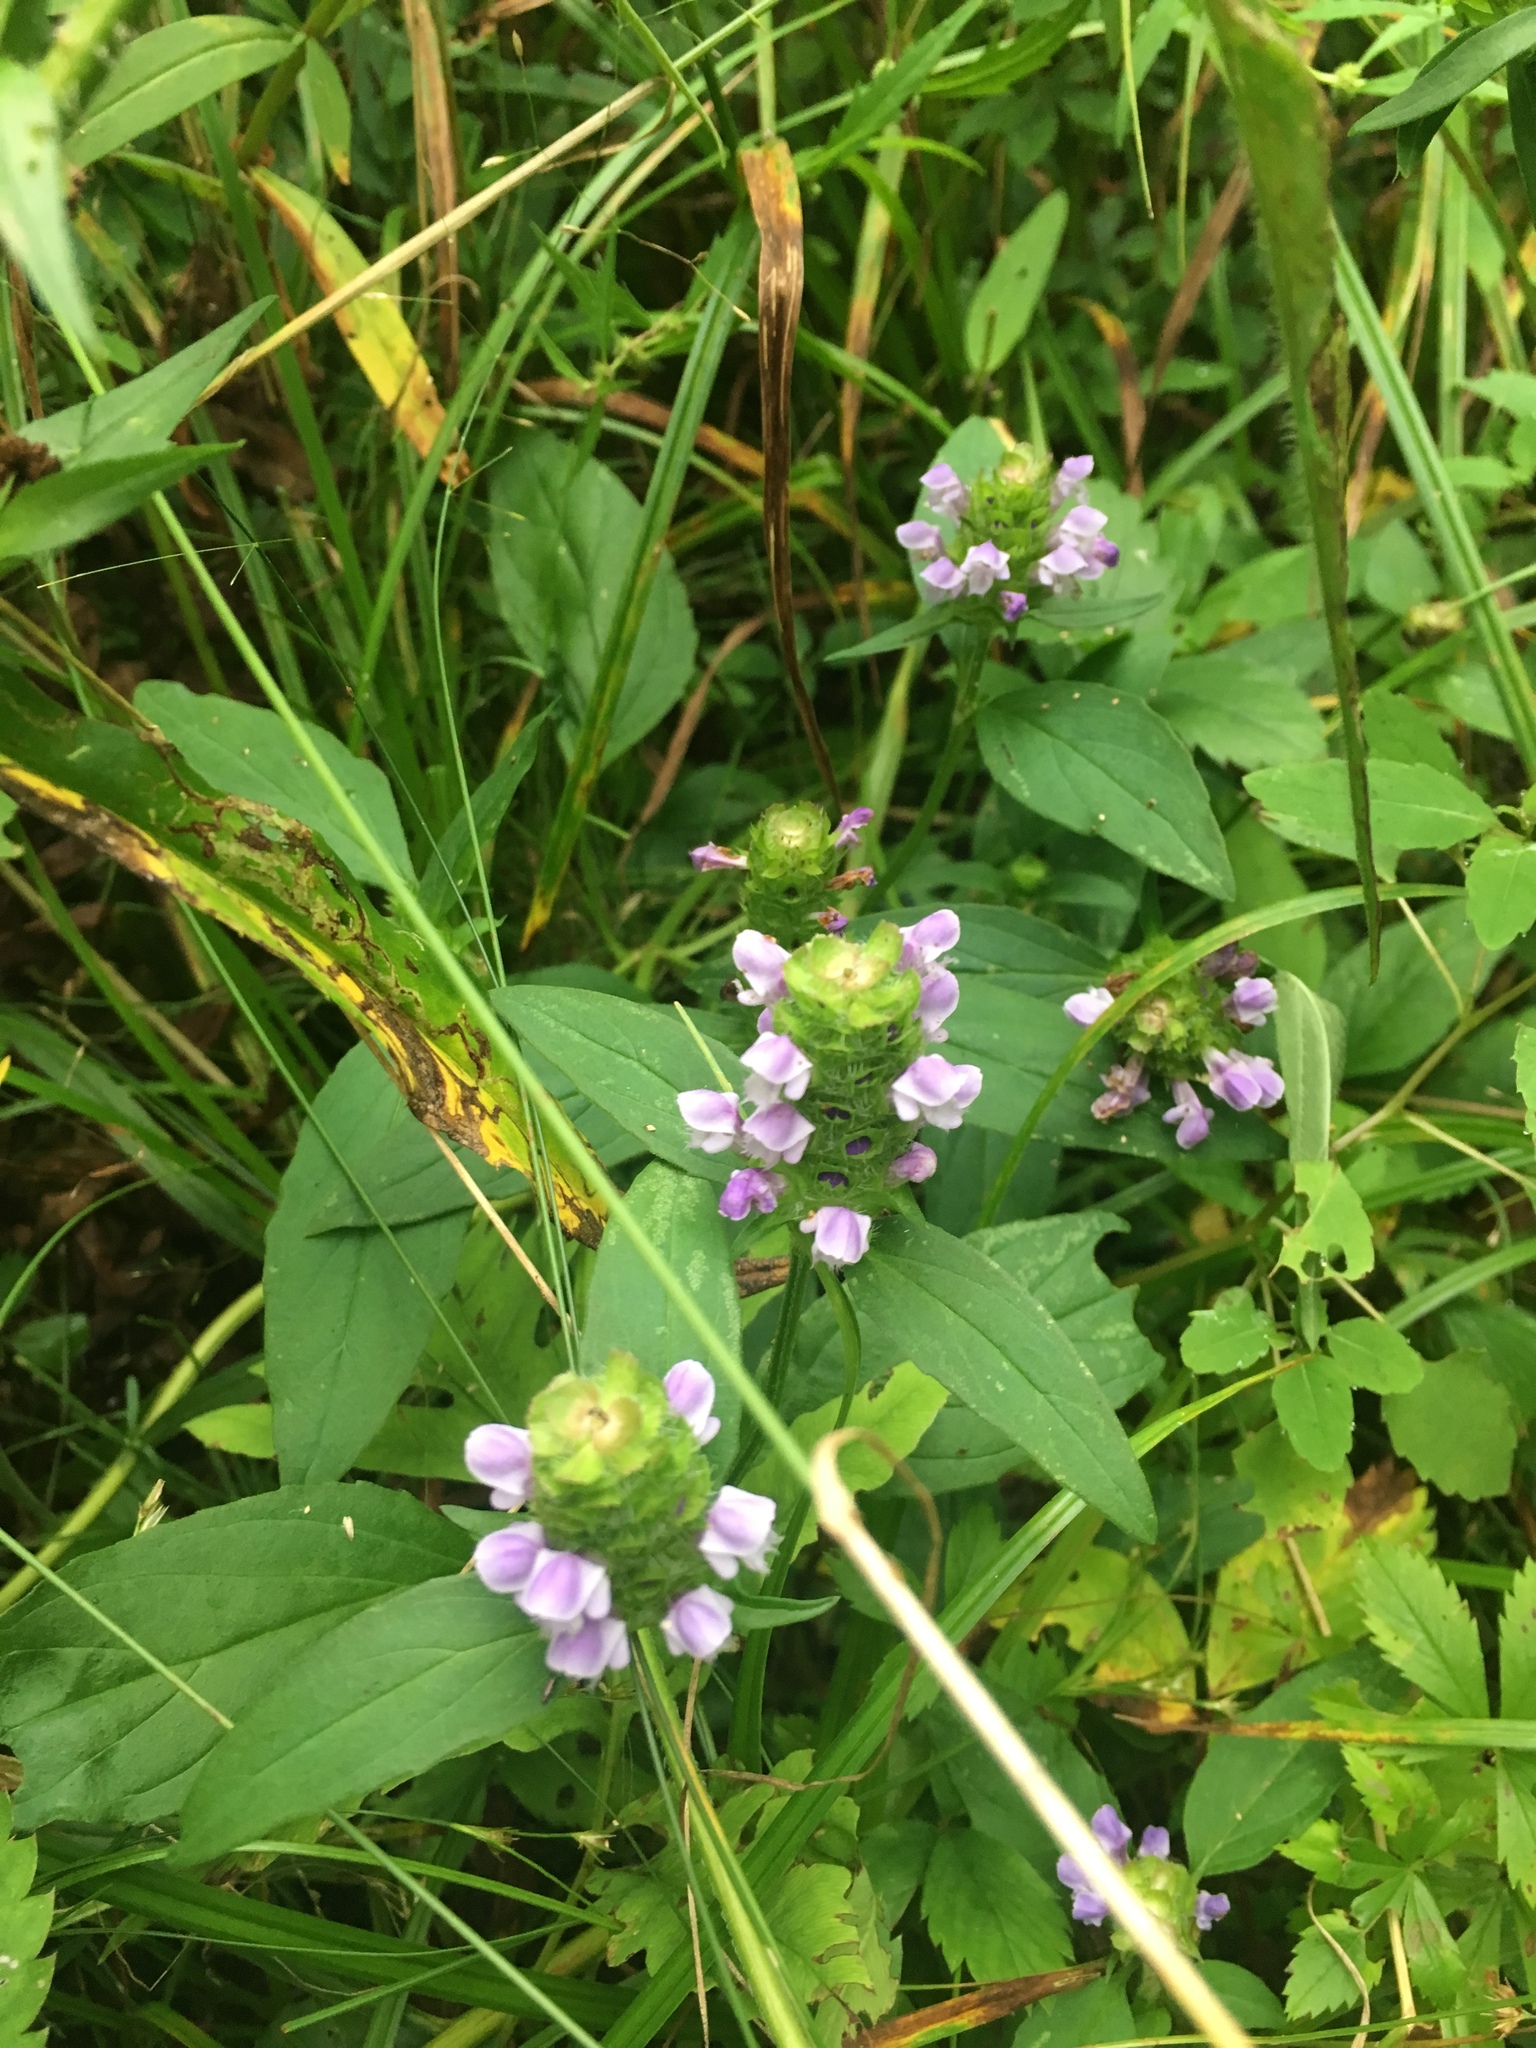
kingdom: Plantae
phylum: Tracheophyta
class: Magnoliopsida
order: Lamiales
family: Lamiaceae
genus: Prunella
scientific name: Prunella vulgaris
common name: Heal-all
